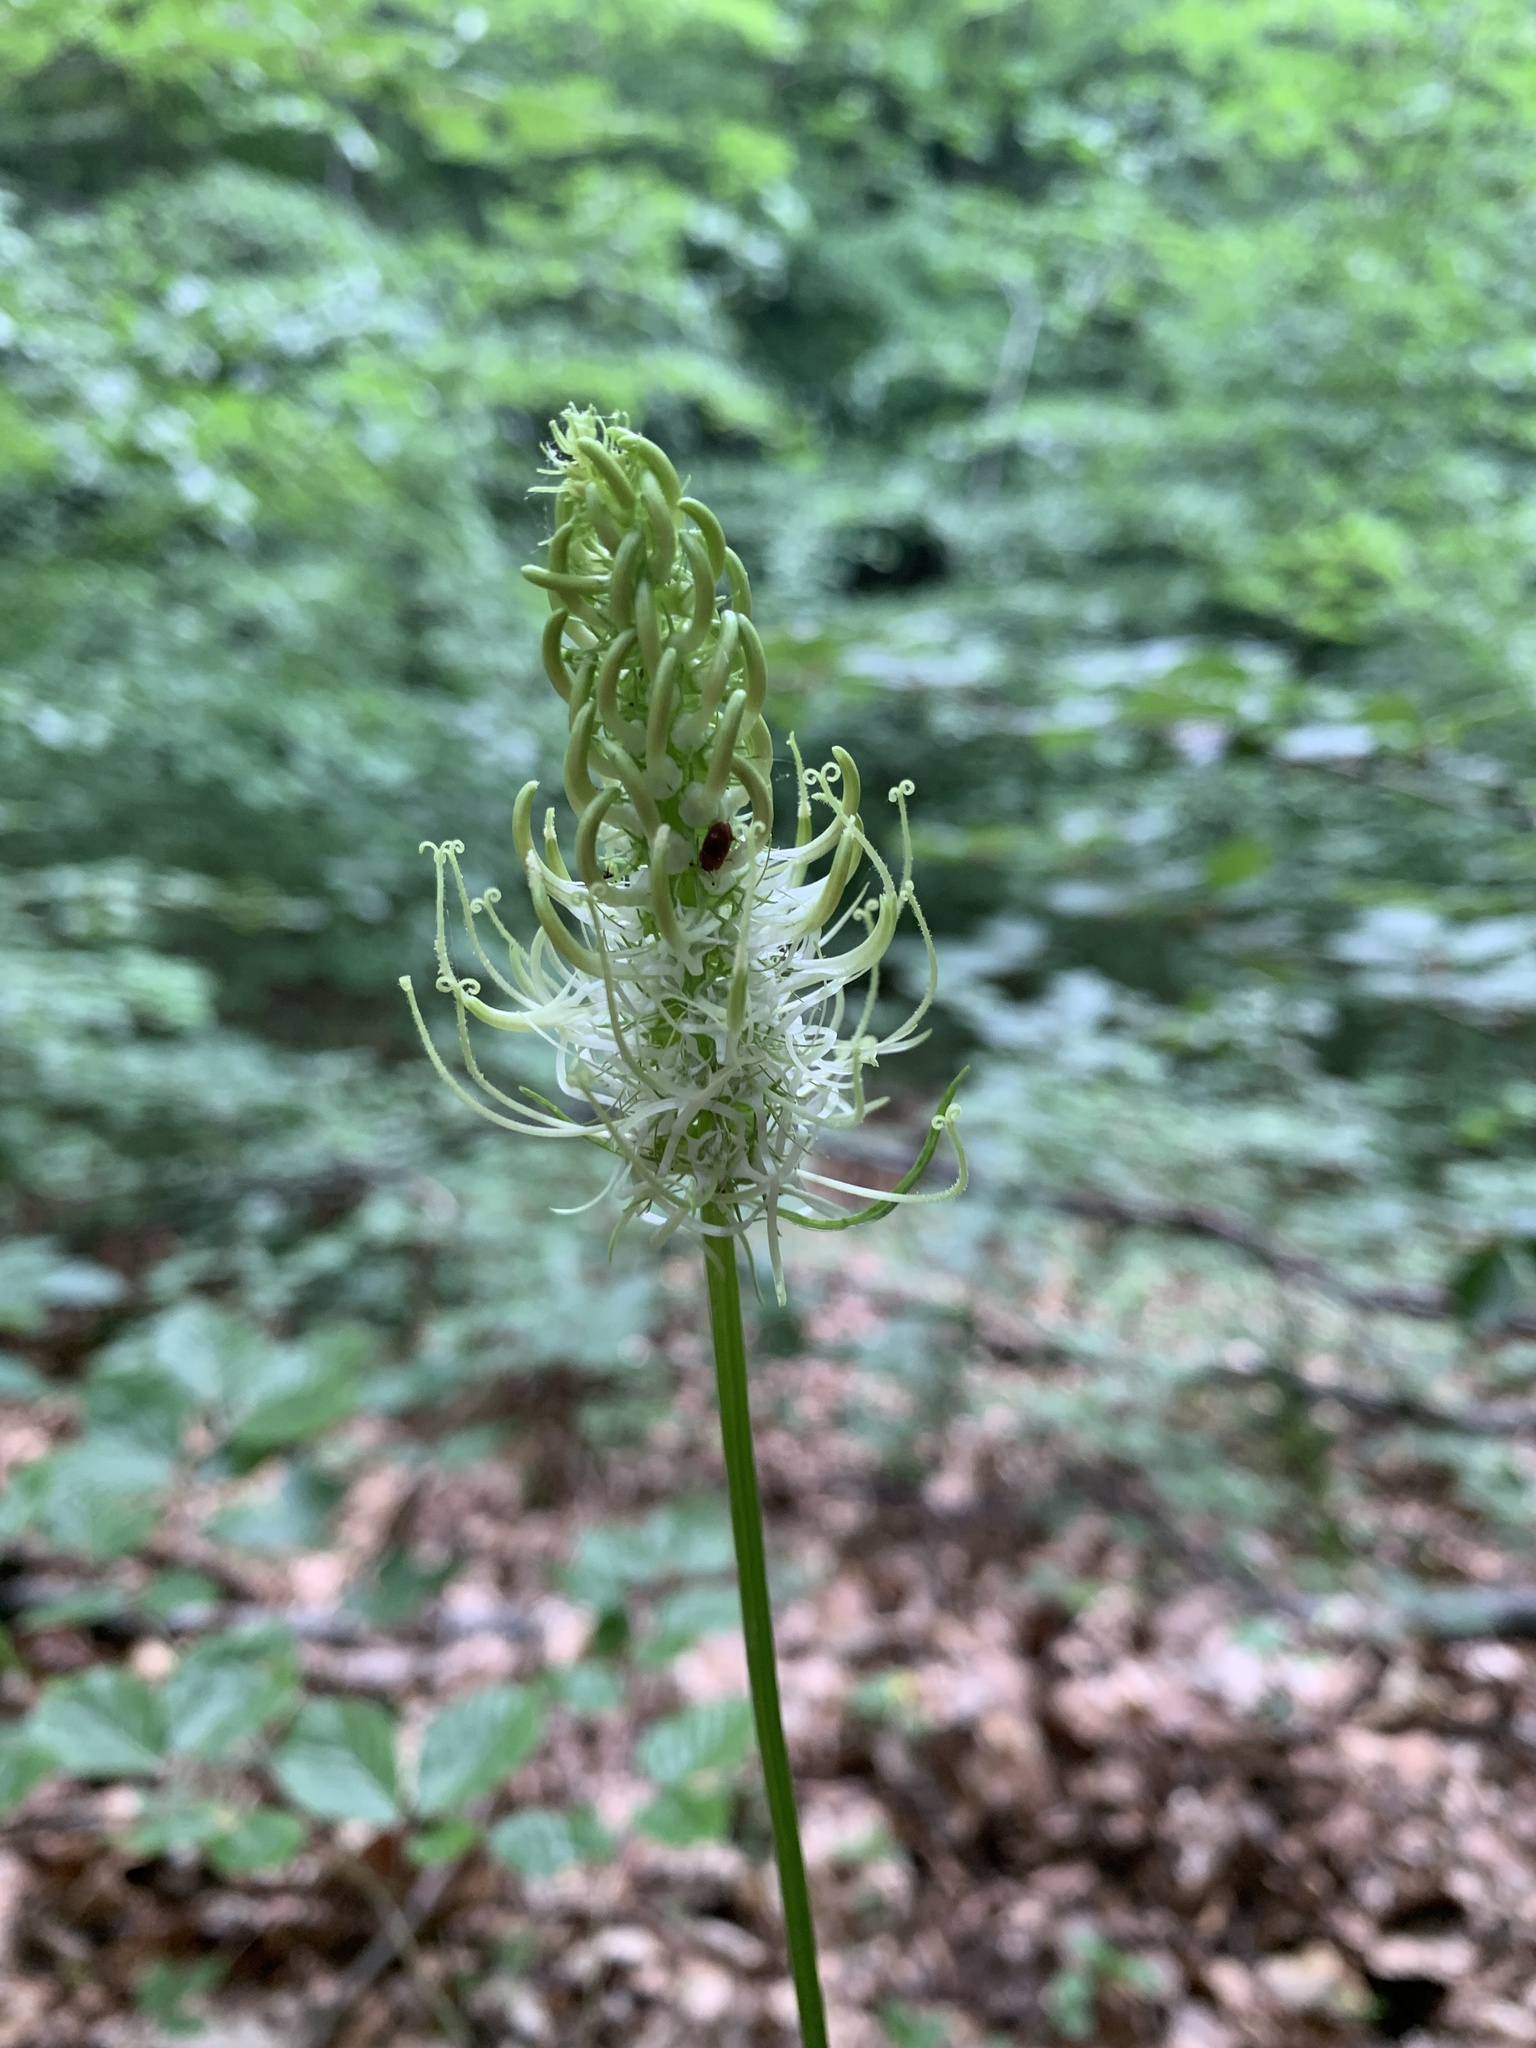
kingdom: Plantae
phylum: Tracheophyta
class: Magnoliopsida
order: Asterales
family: Campanulaceae
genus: Phyteuma
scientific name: Phyteuma spicatum
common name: Spiked rampion
